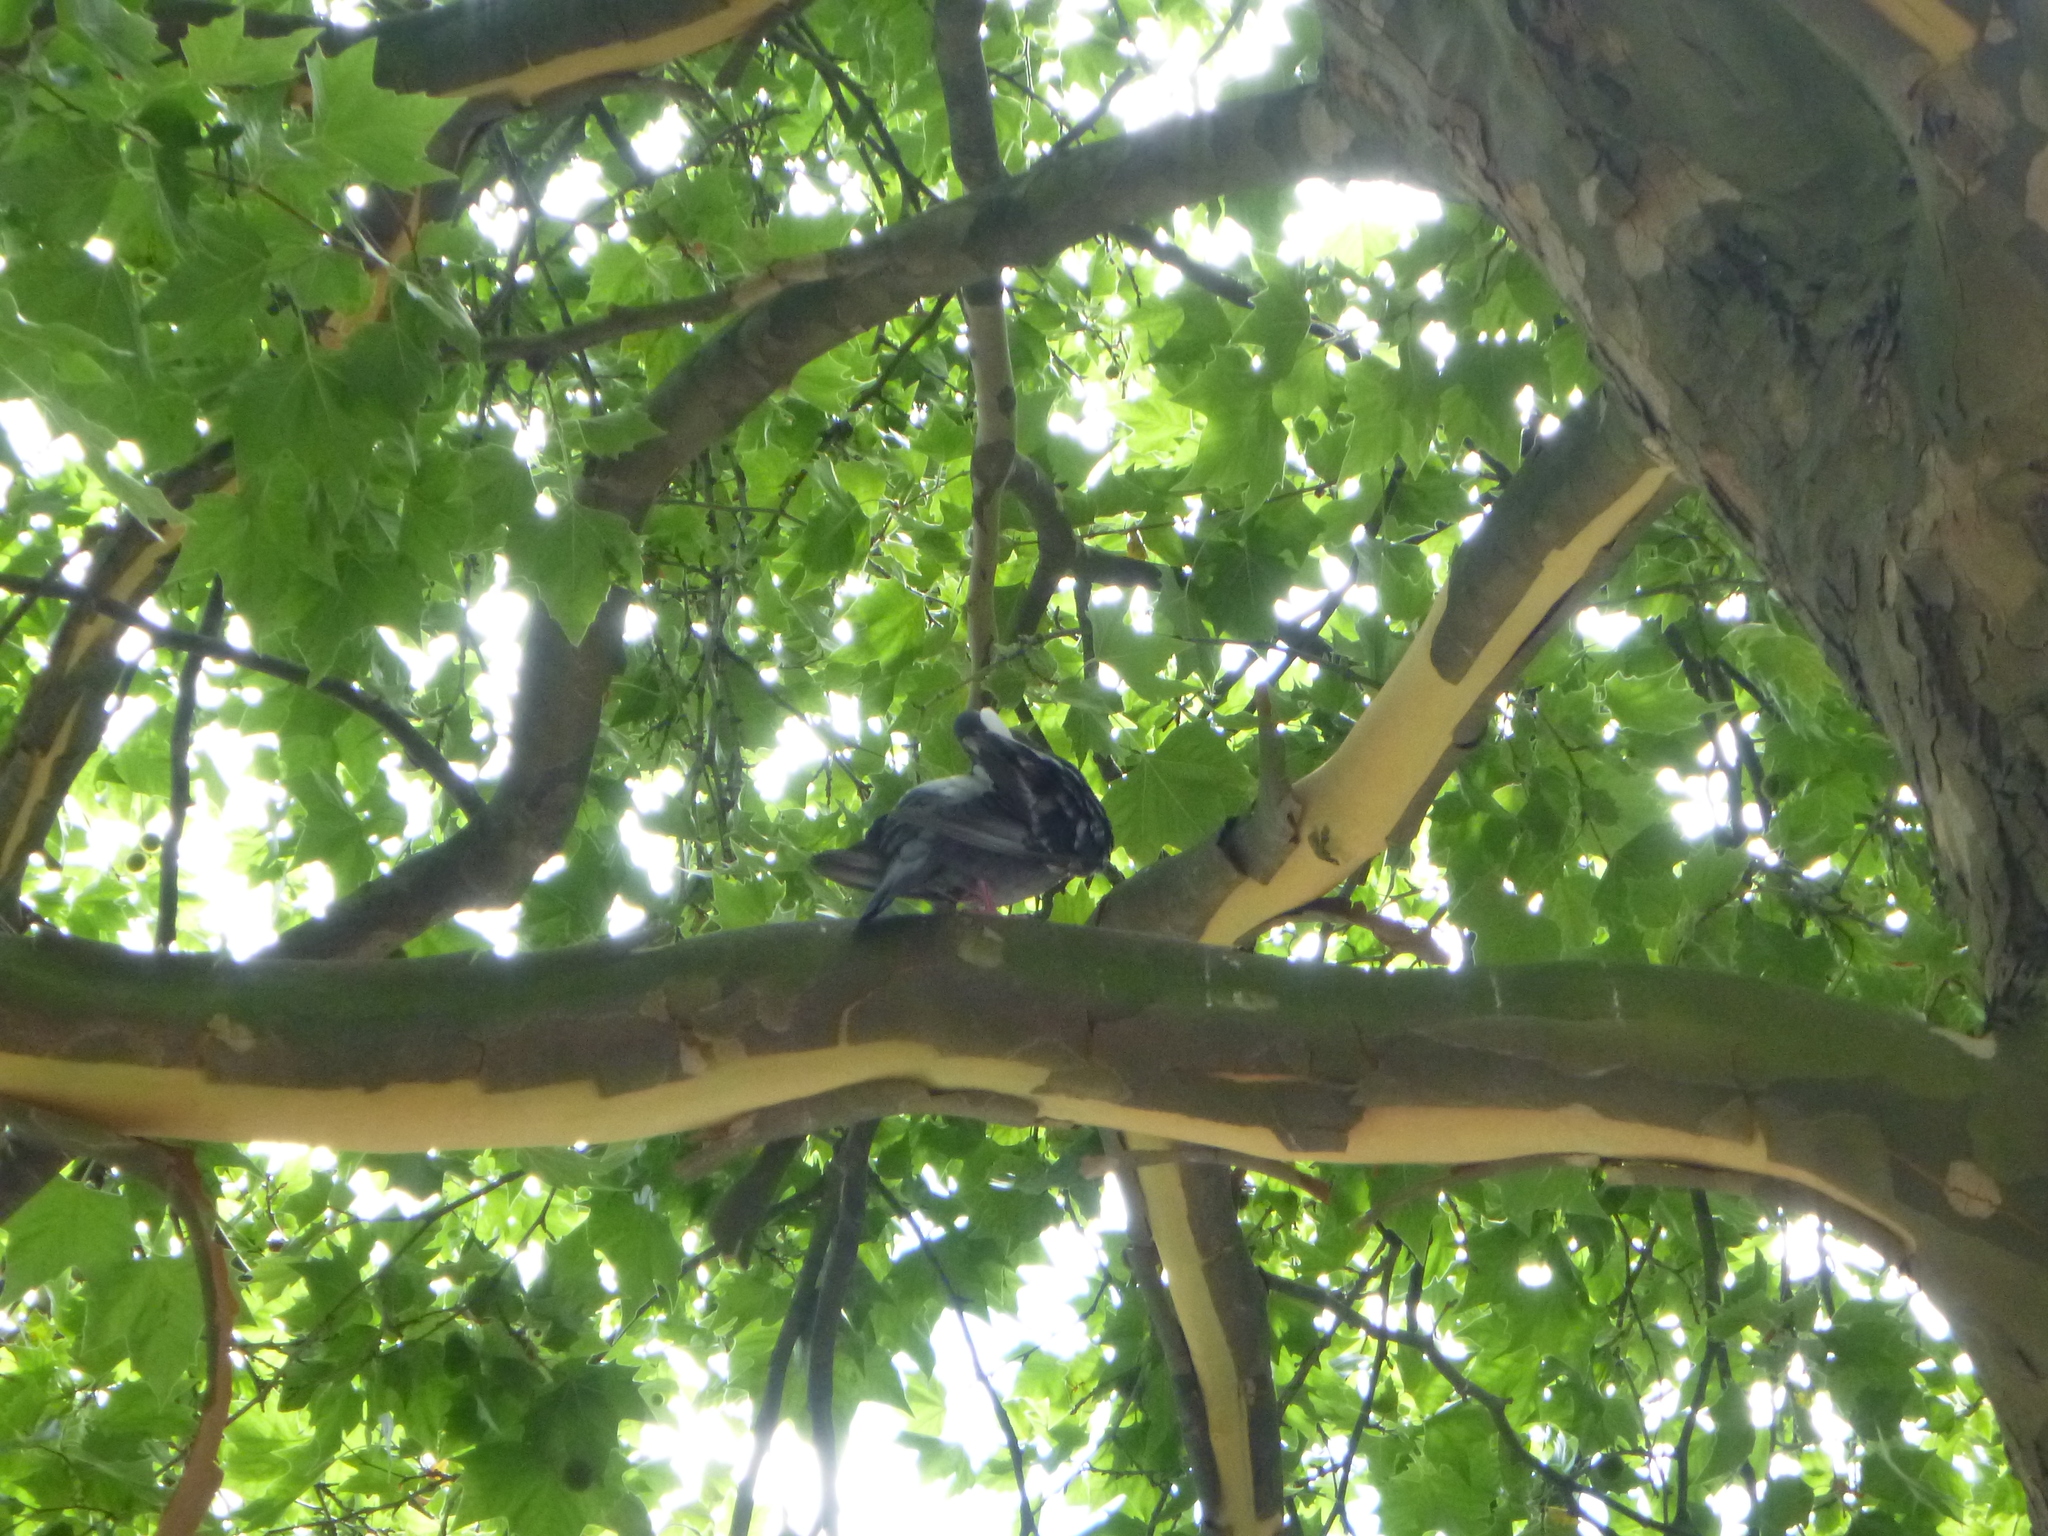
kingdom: Animalia
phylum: Chordata
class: Aves
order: Columbiformes
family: Columbidae
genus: Columba
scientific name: Columba livia
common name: Rock pigeon
